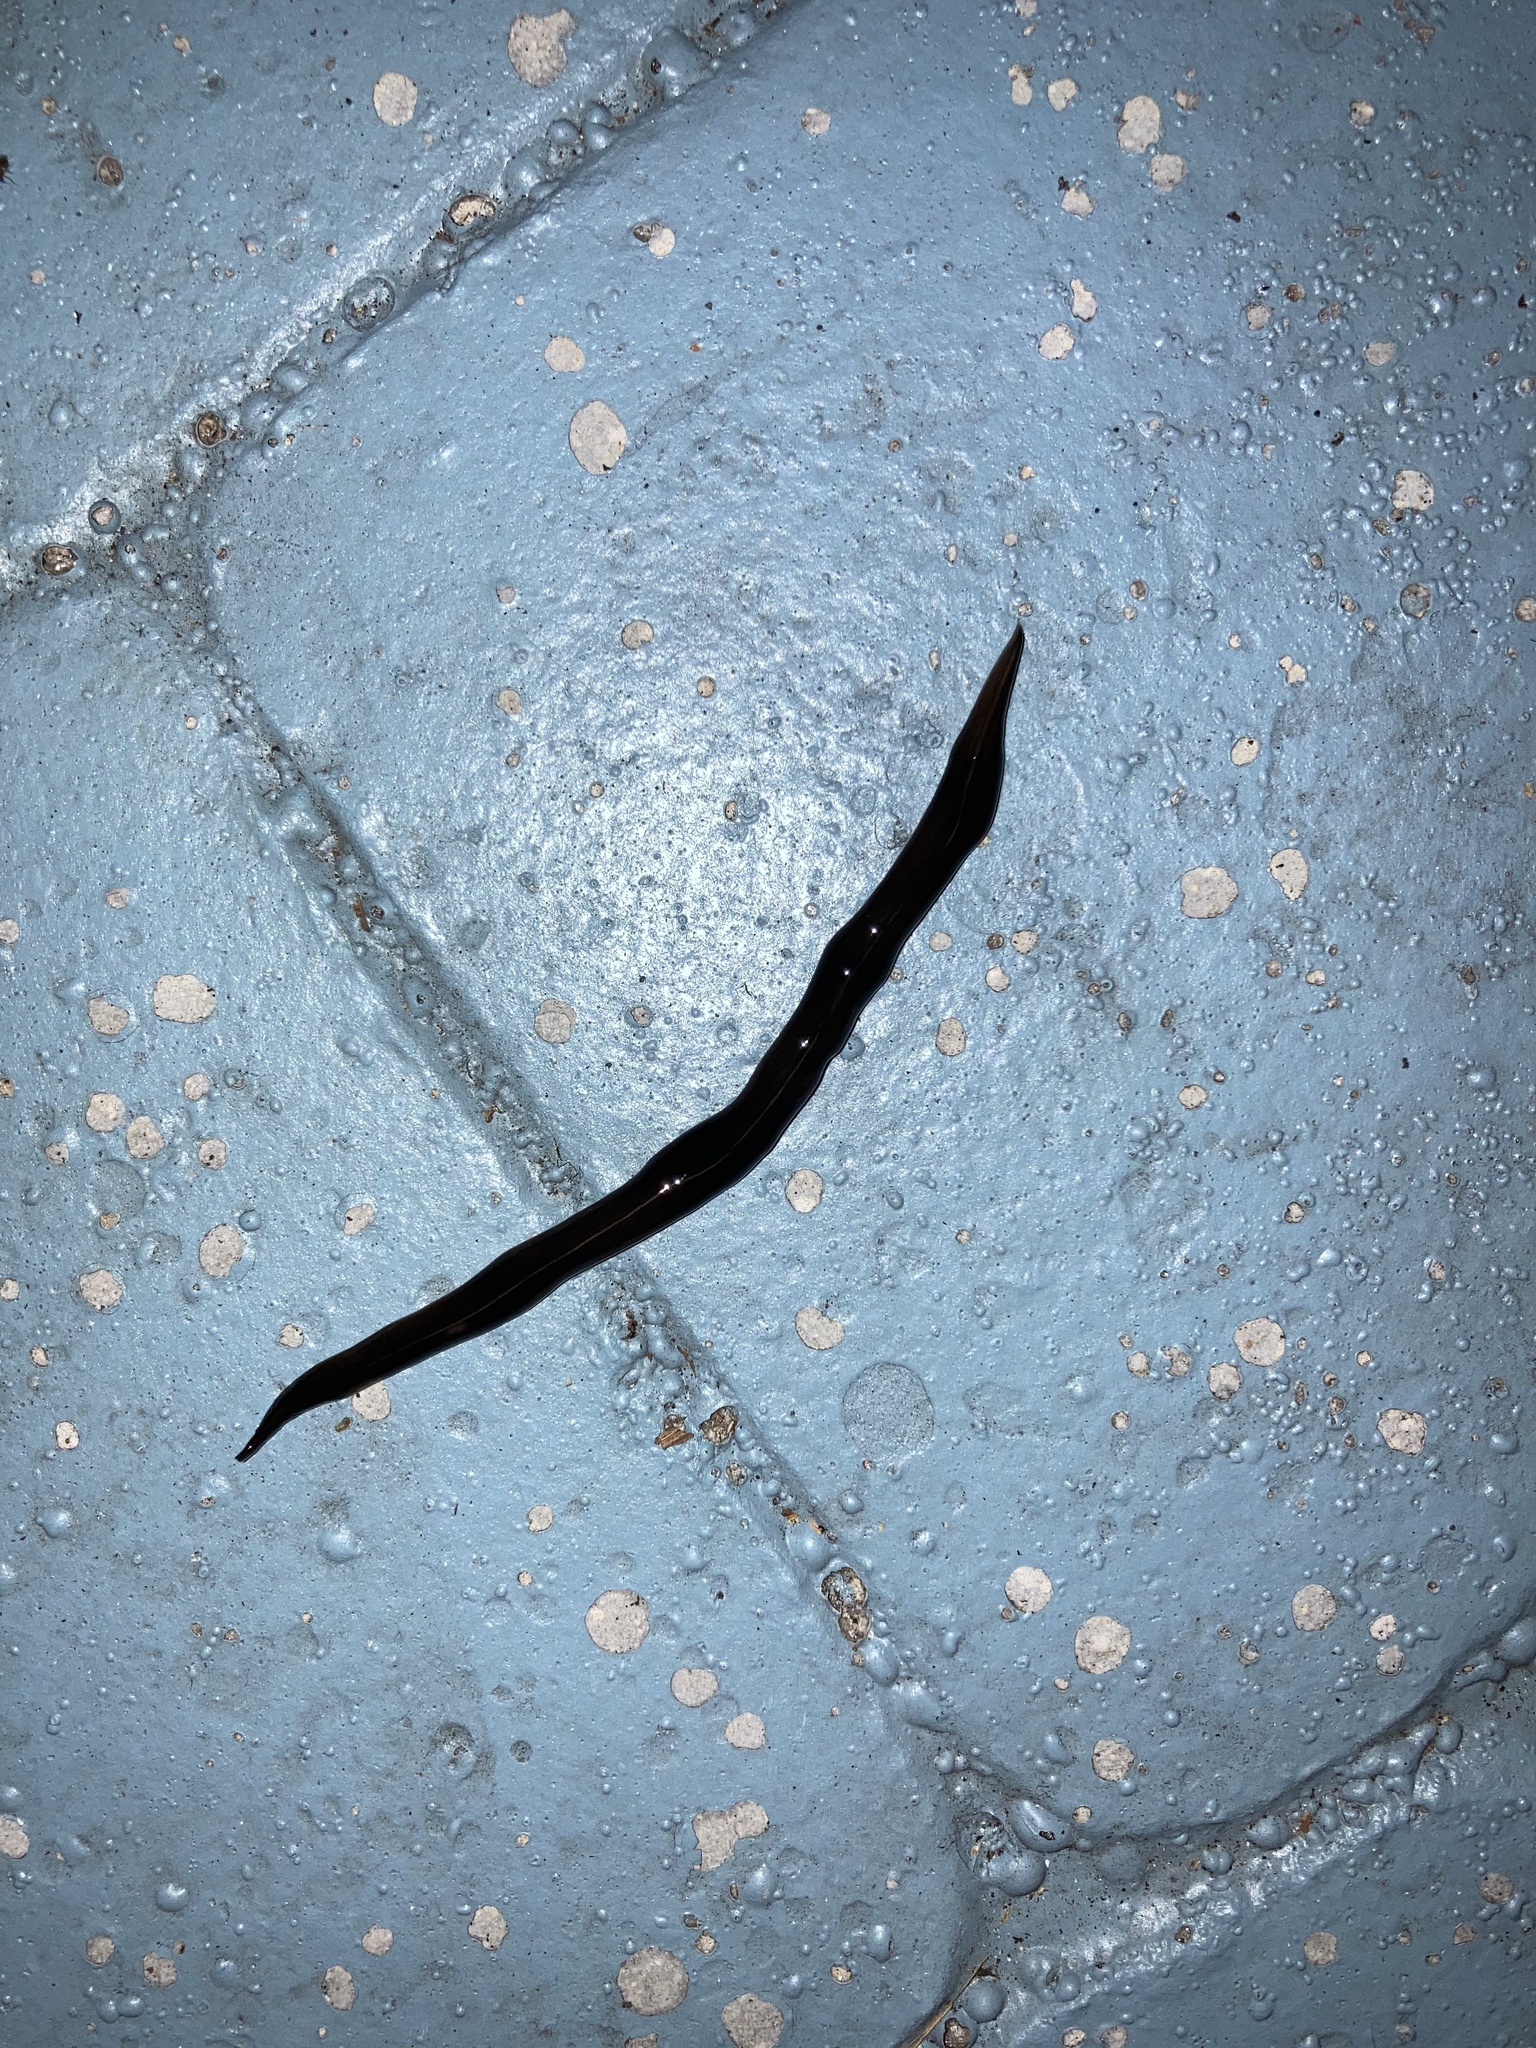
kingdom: Animalia
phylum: Platyhelminthes
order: Tricladida
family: Geoplanidae
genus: Platydemus
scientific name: Platydemus manokwari
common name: New guinea flatworm
